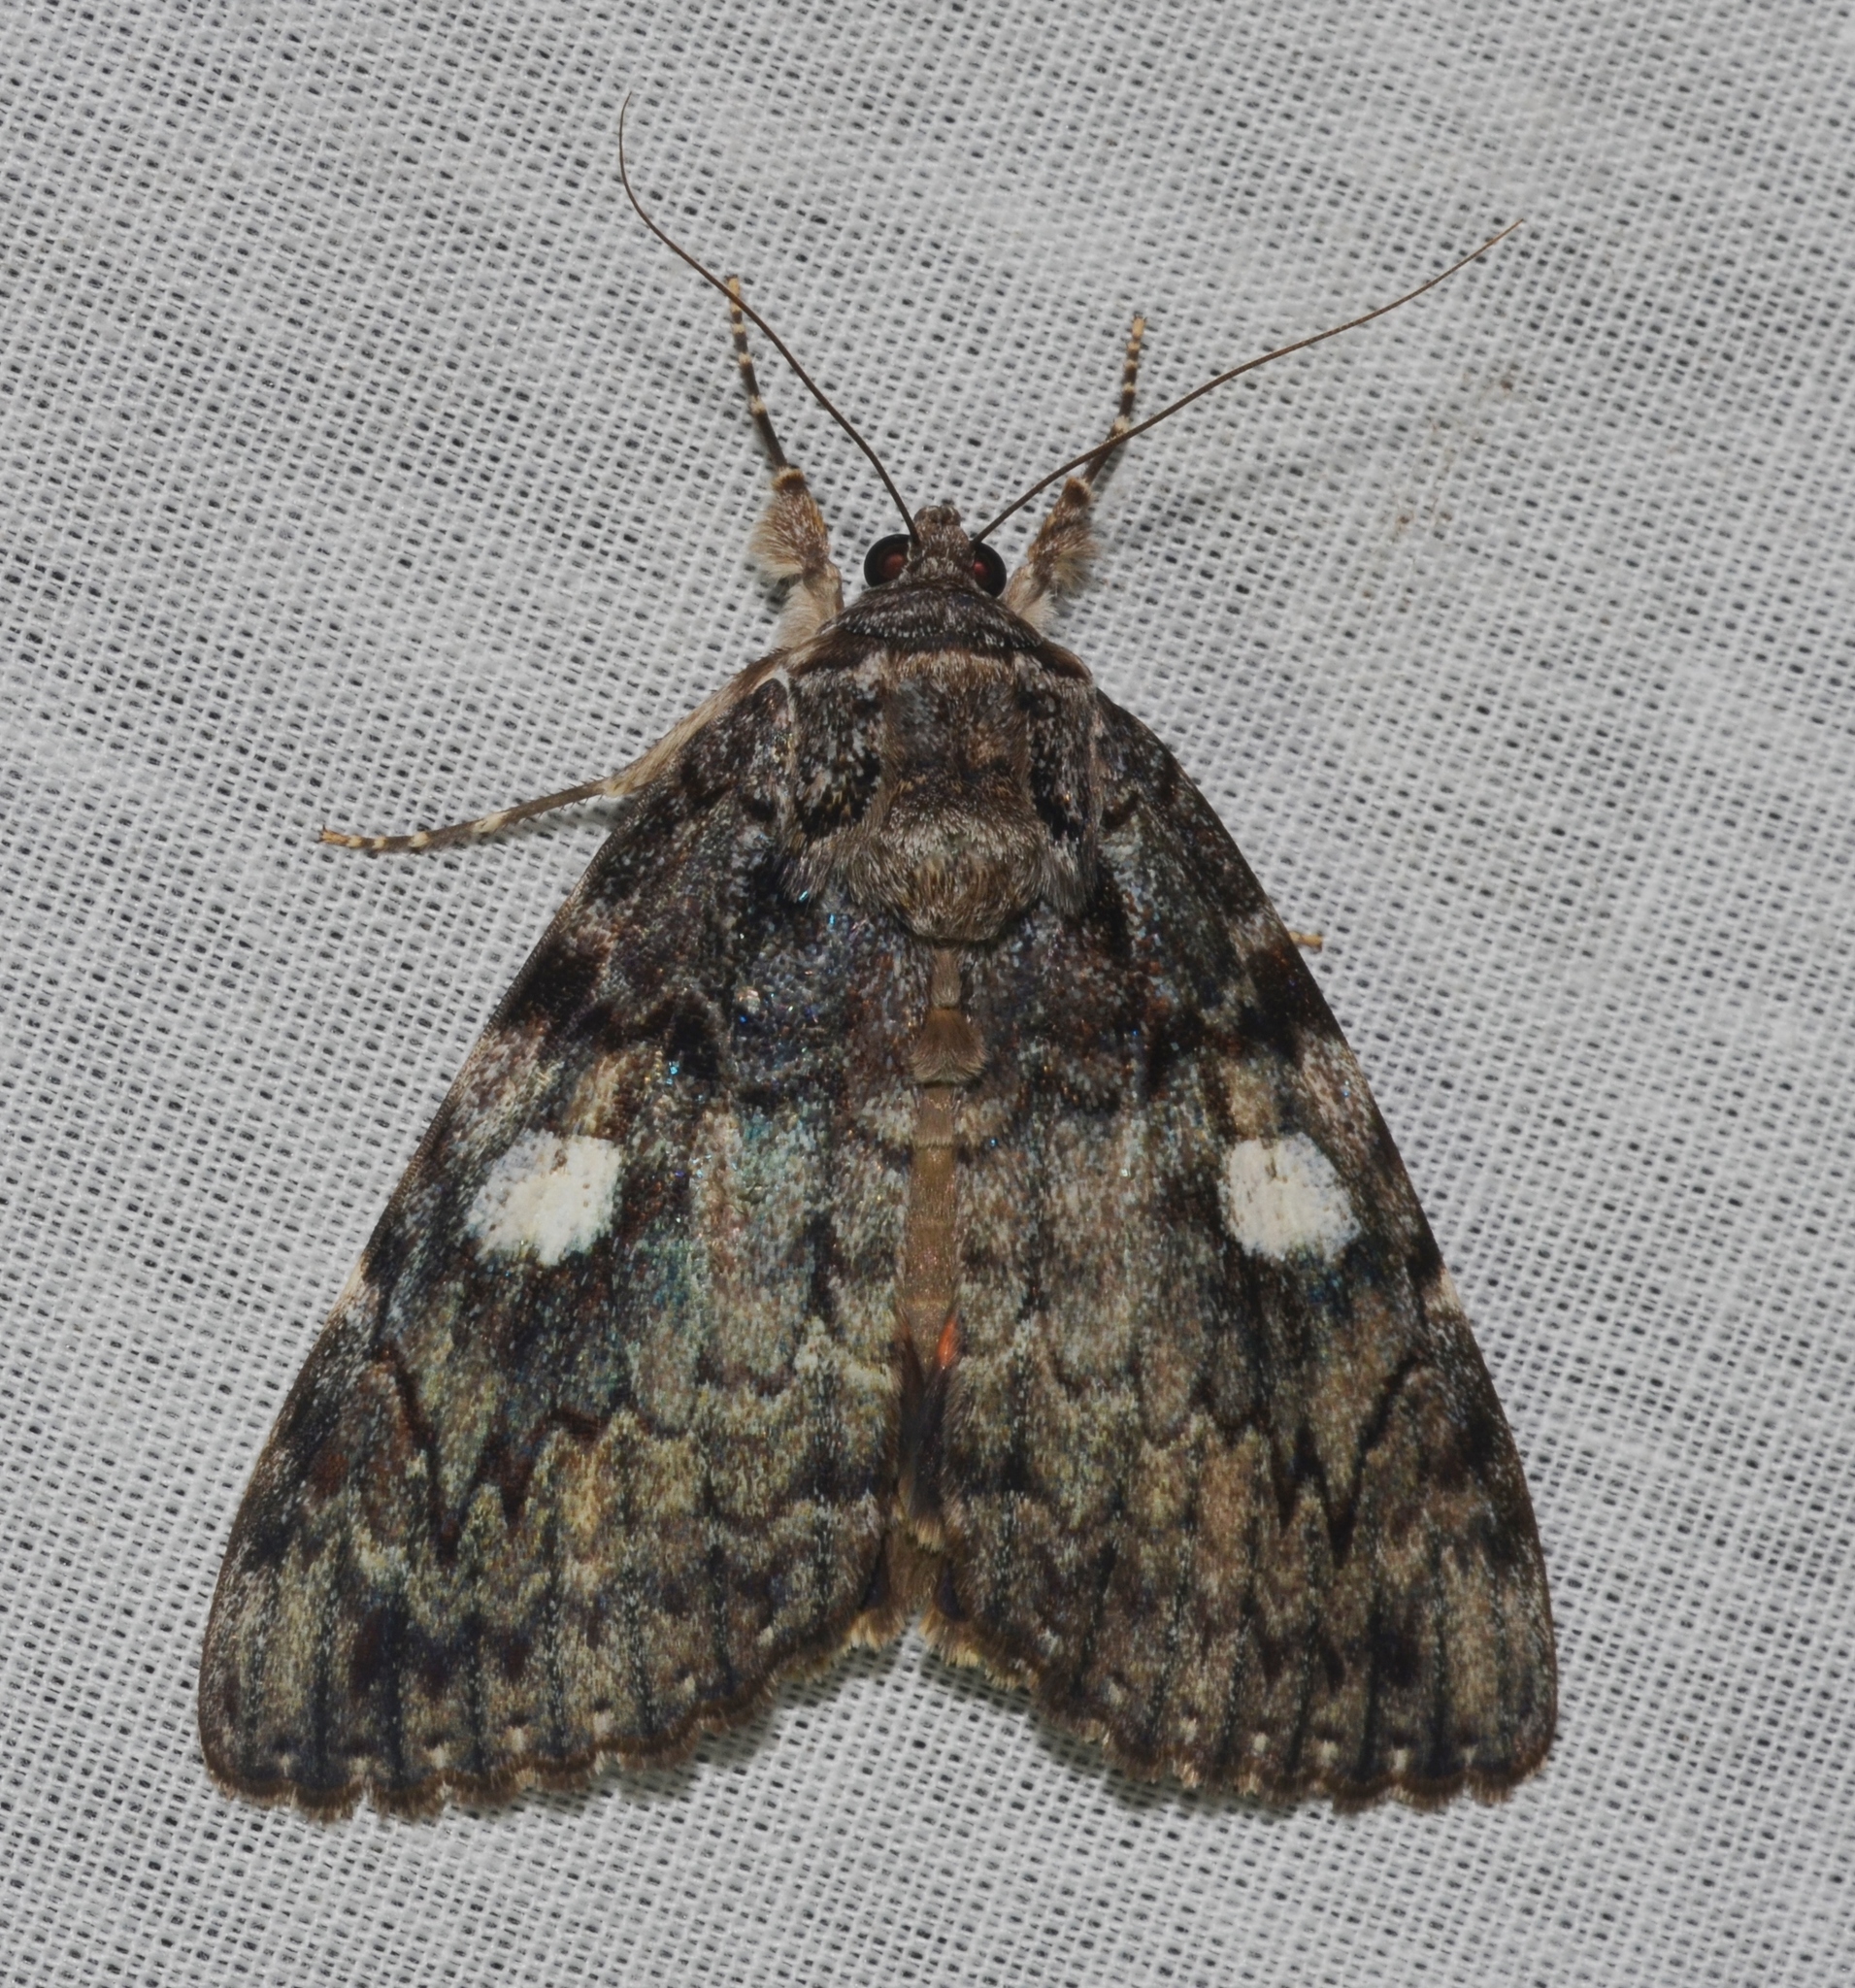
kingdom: Animalia
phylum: Arthropoda
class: Insecta
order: Lepidoptera
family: Erebidae
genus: Catocala
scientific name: Catocala ilia
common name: Ilia underwing
